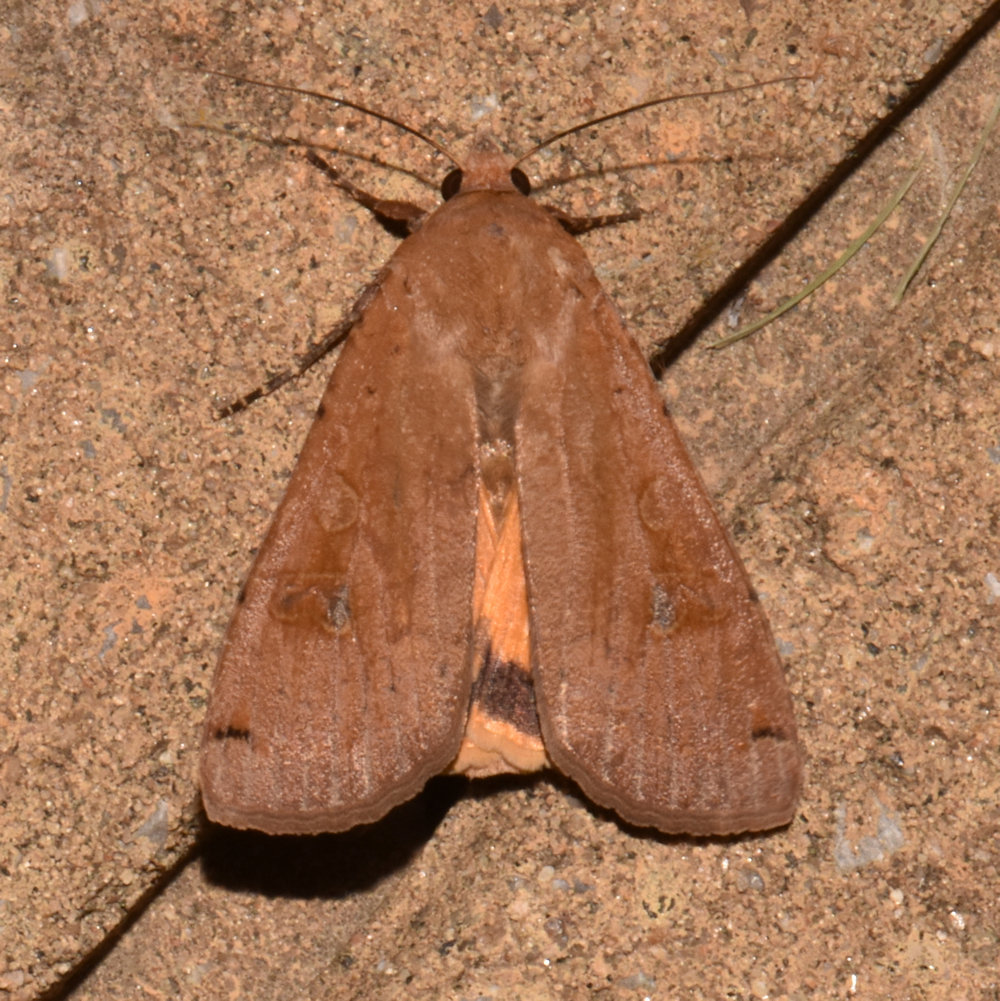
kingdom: Animalia
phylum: Arthropoda
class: Insecta
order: Lepidoptera
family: Noctuidae
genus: Noctua
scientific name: Noctua pronuba
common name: Large yellow underwing
